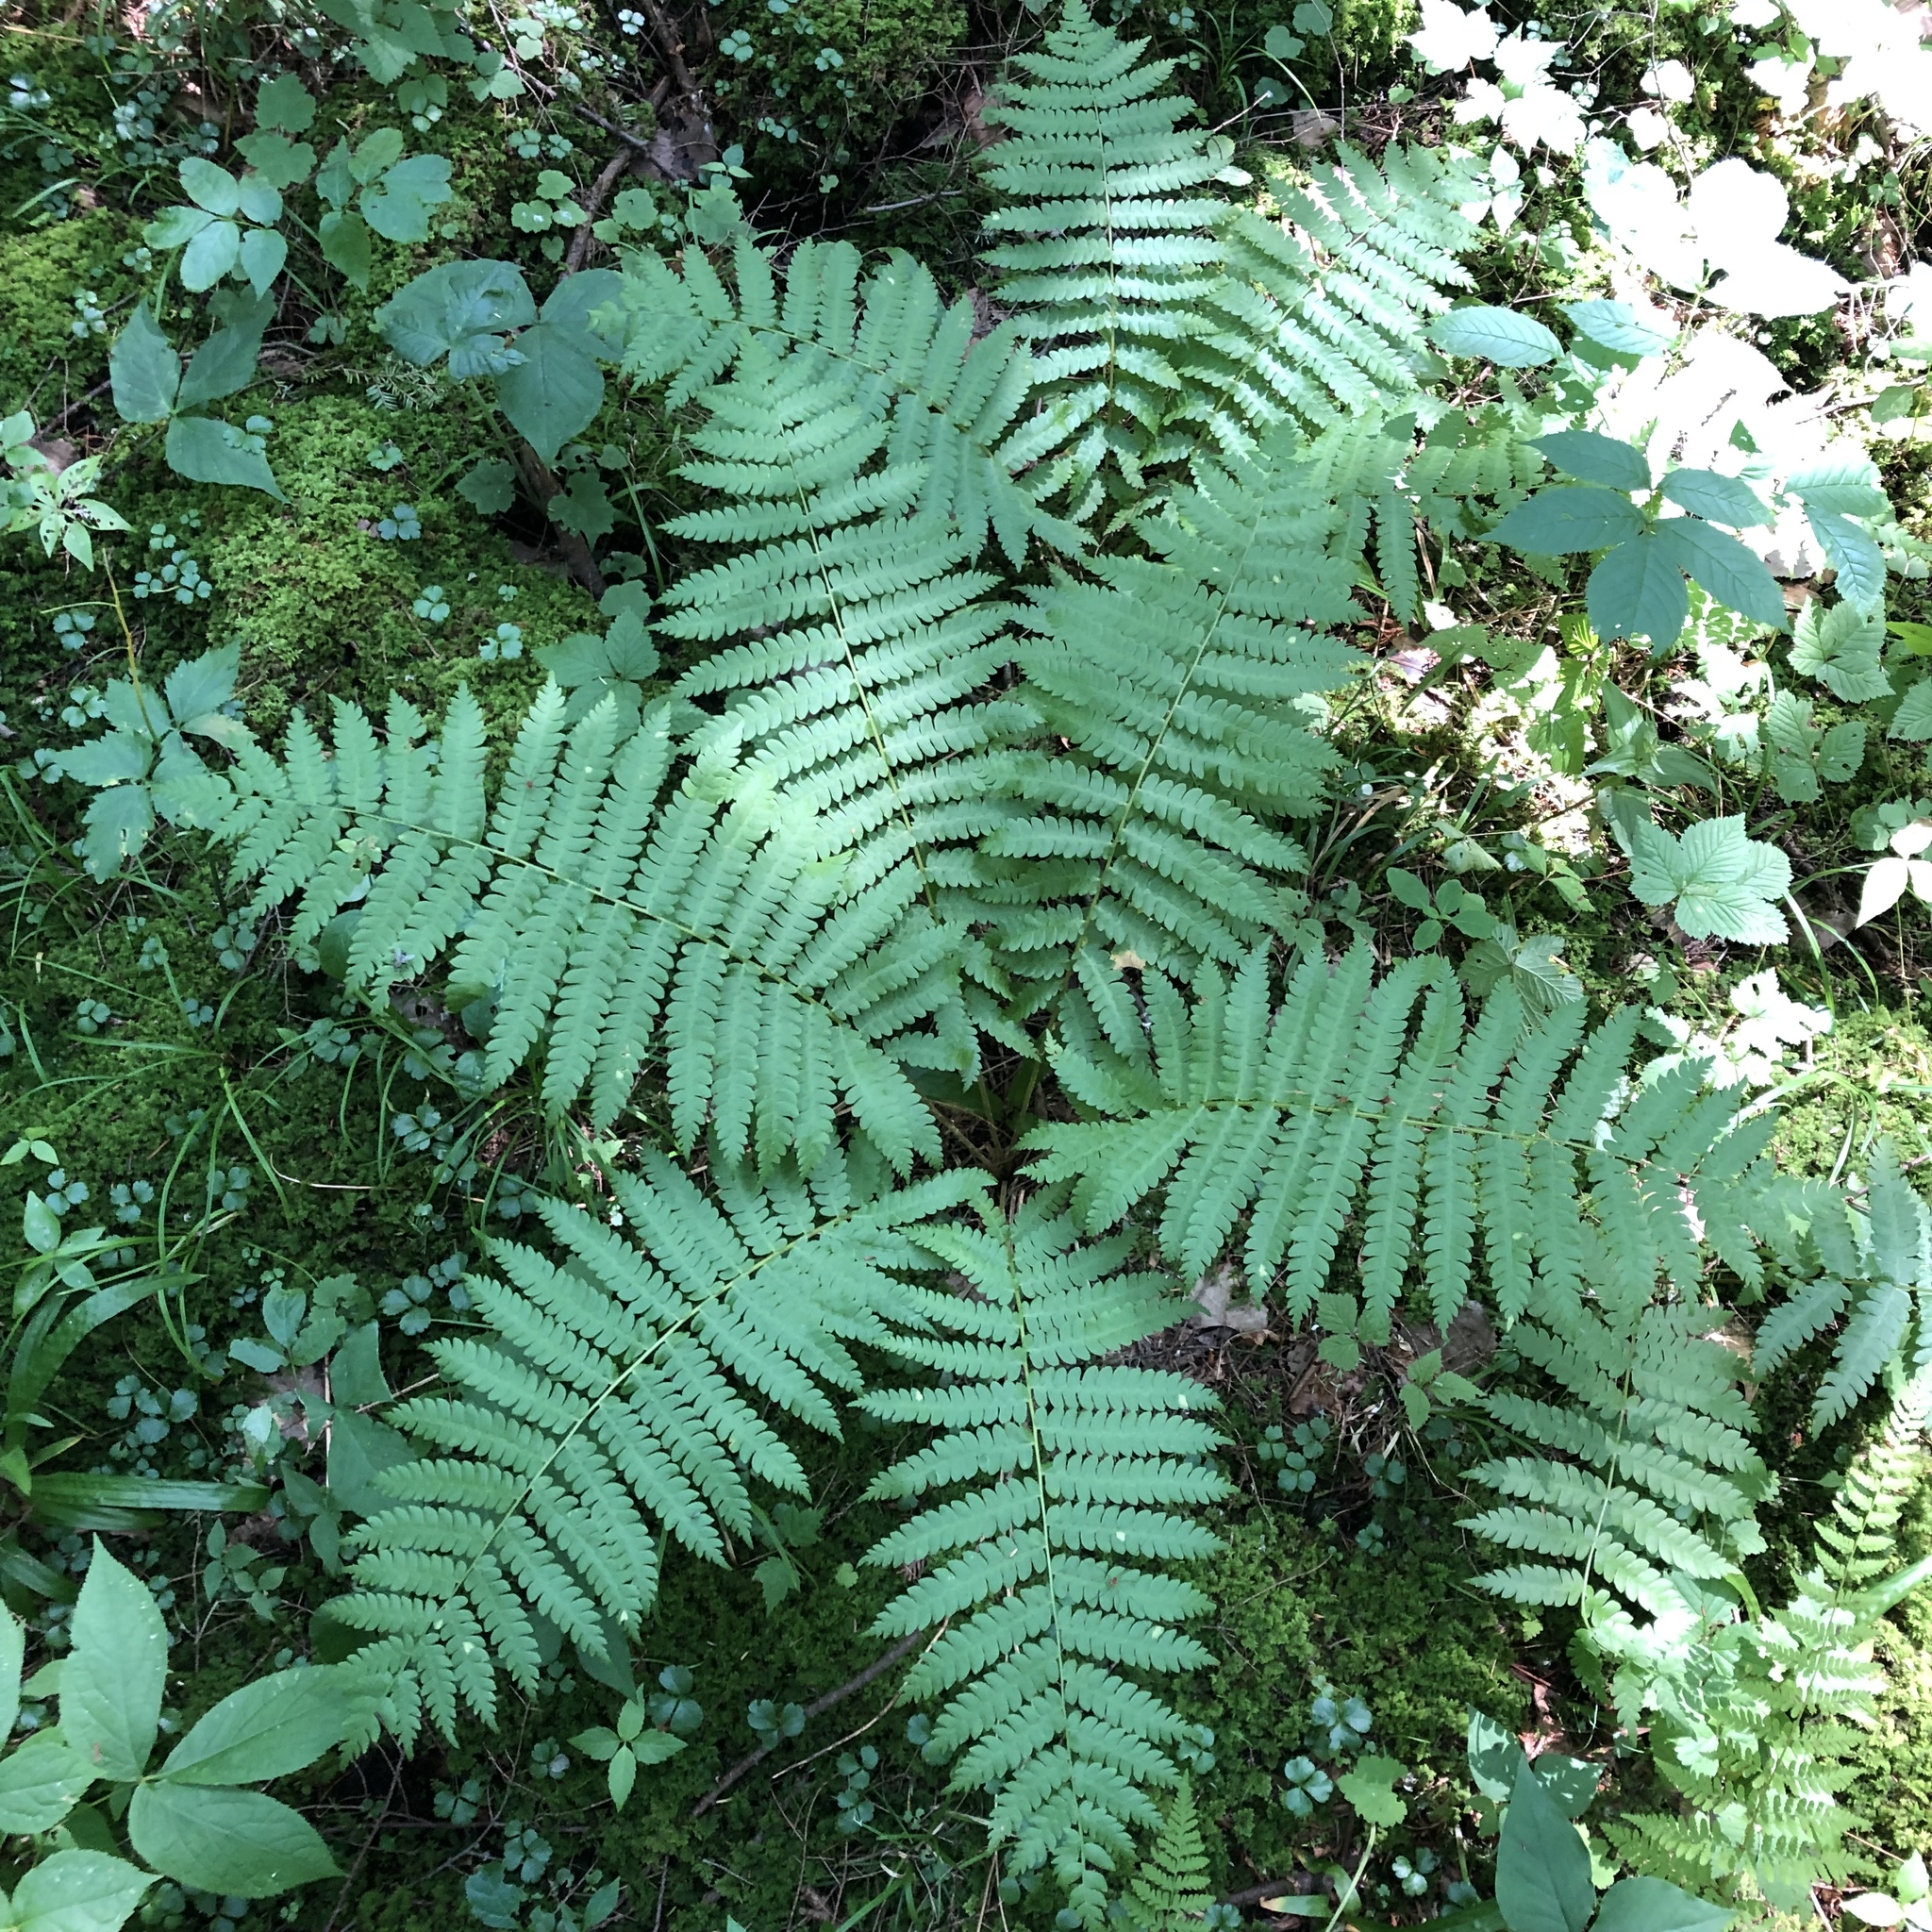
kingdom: Plantae
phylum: Tracheophyta
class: Polypodiopsida
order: Osmundales
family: Osmundaceae
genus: Osmundastrum
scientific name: Osmundastrum cinnamomeum
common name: Cinnamon fern
